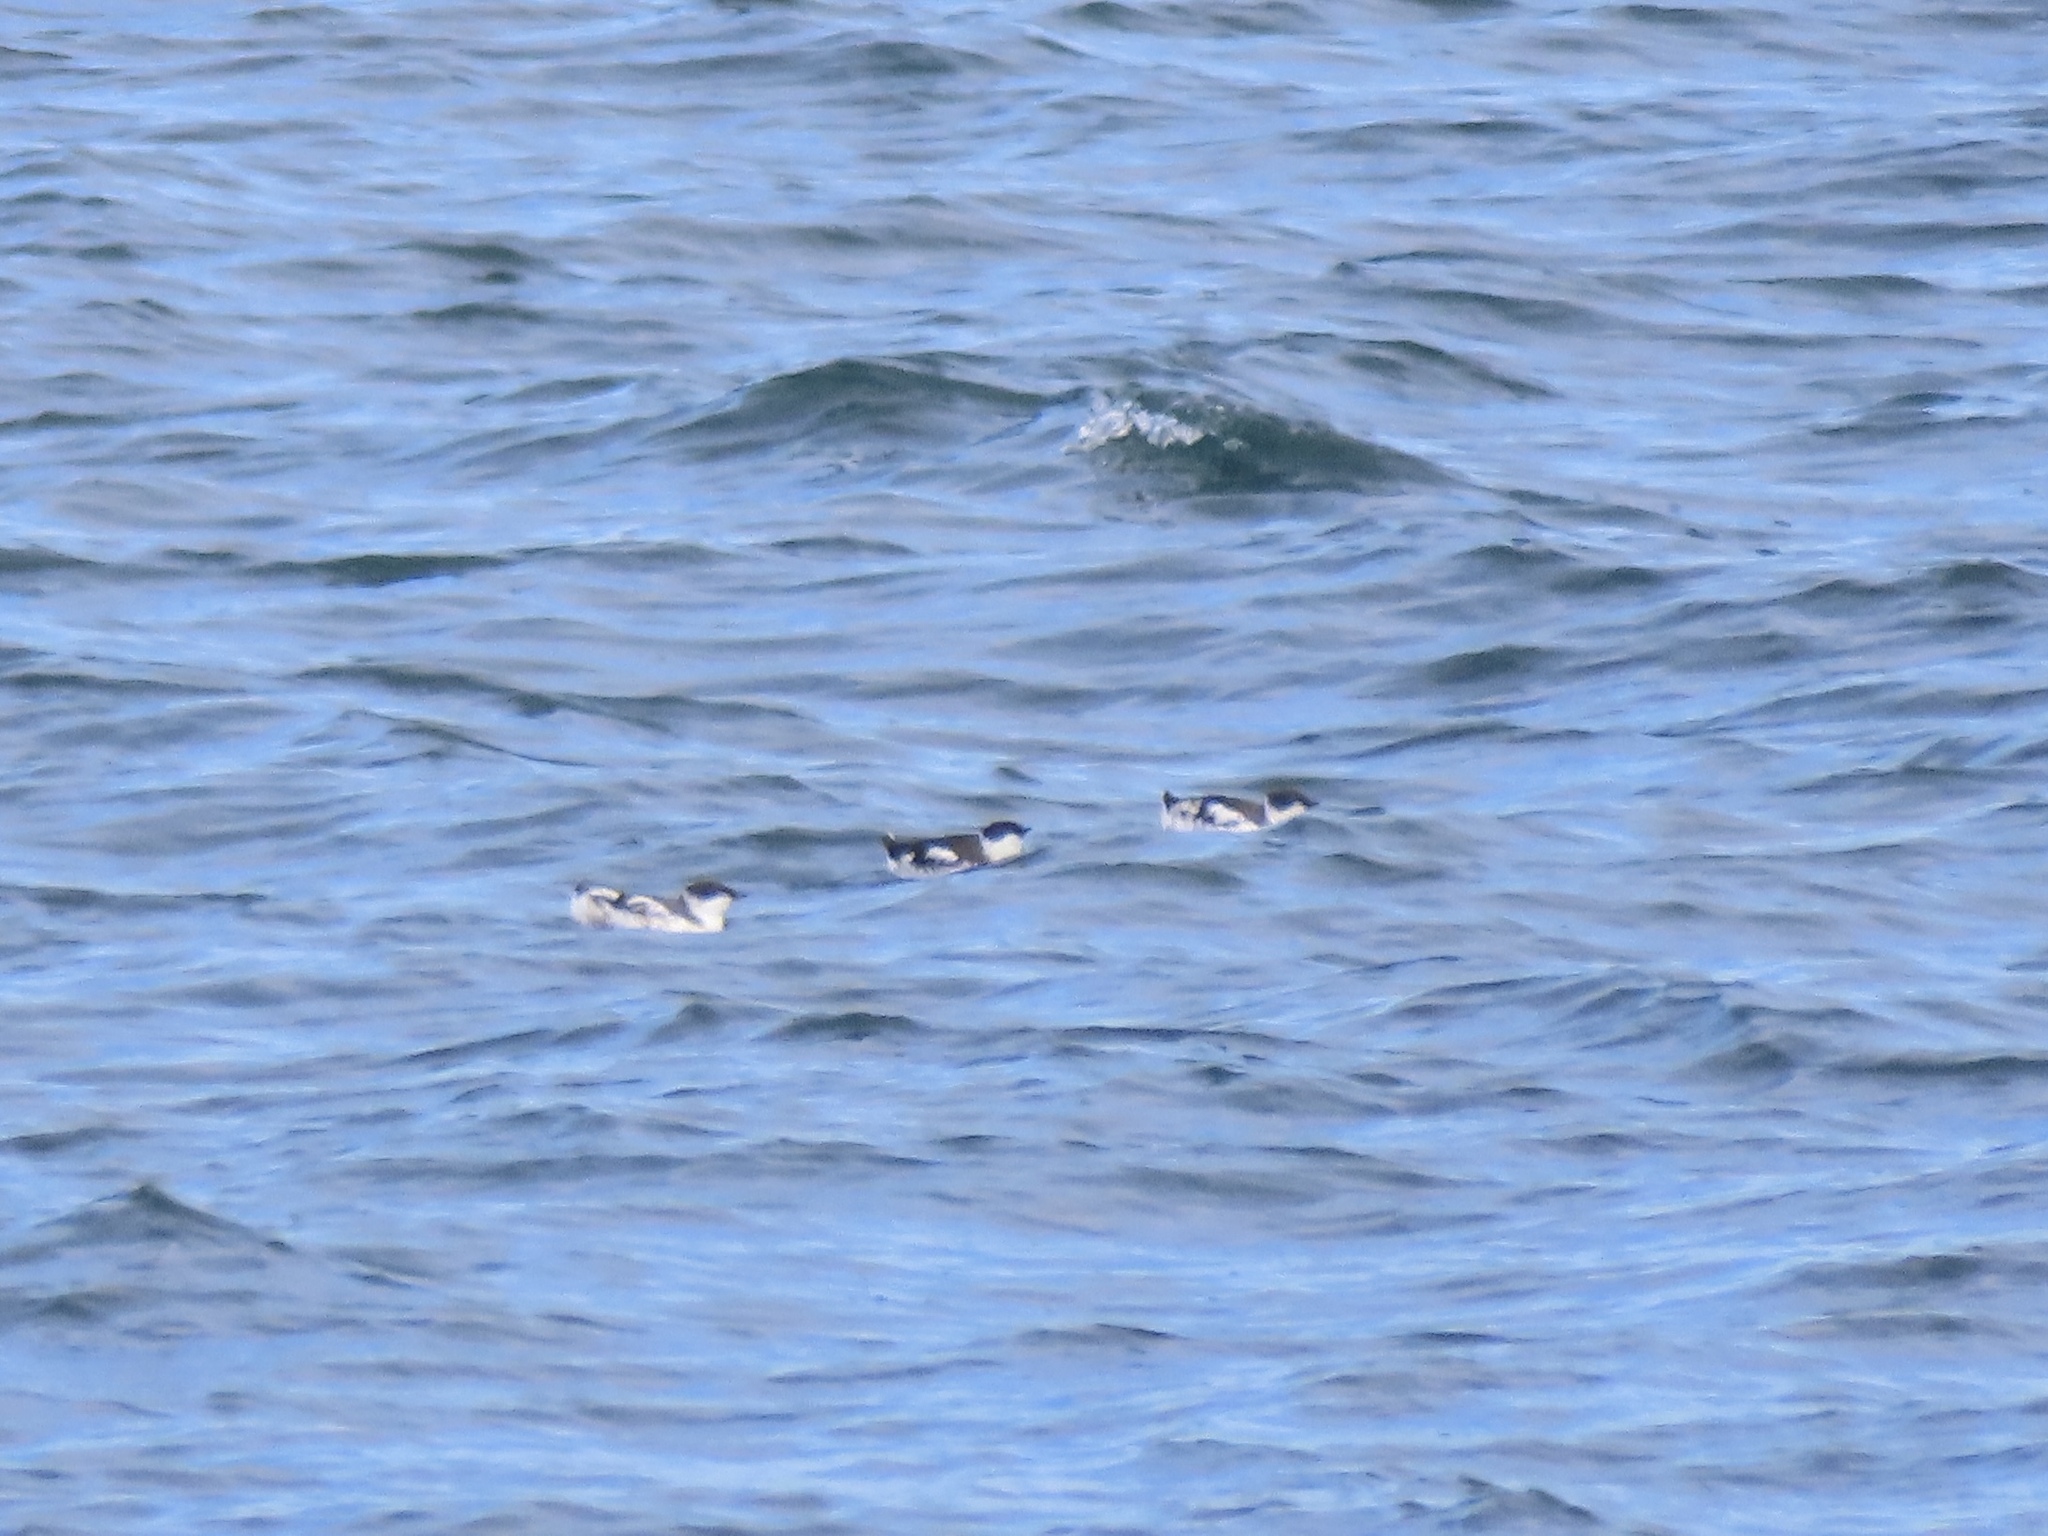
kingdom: Animalia
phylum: Chordata
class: Aves
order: Charadriiformes
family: Alcidae
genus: Brachyramphus
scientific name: Brachyramphus marmoratus
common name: Marbled murrelet
